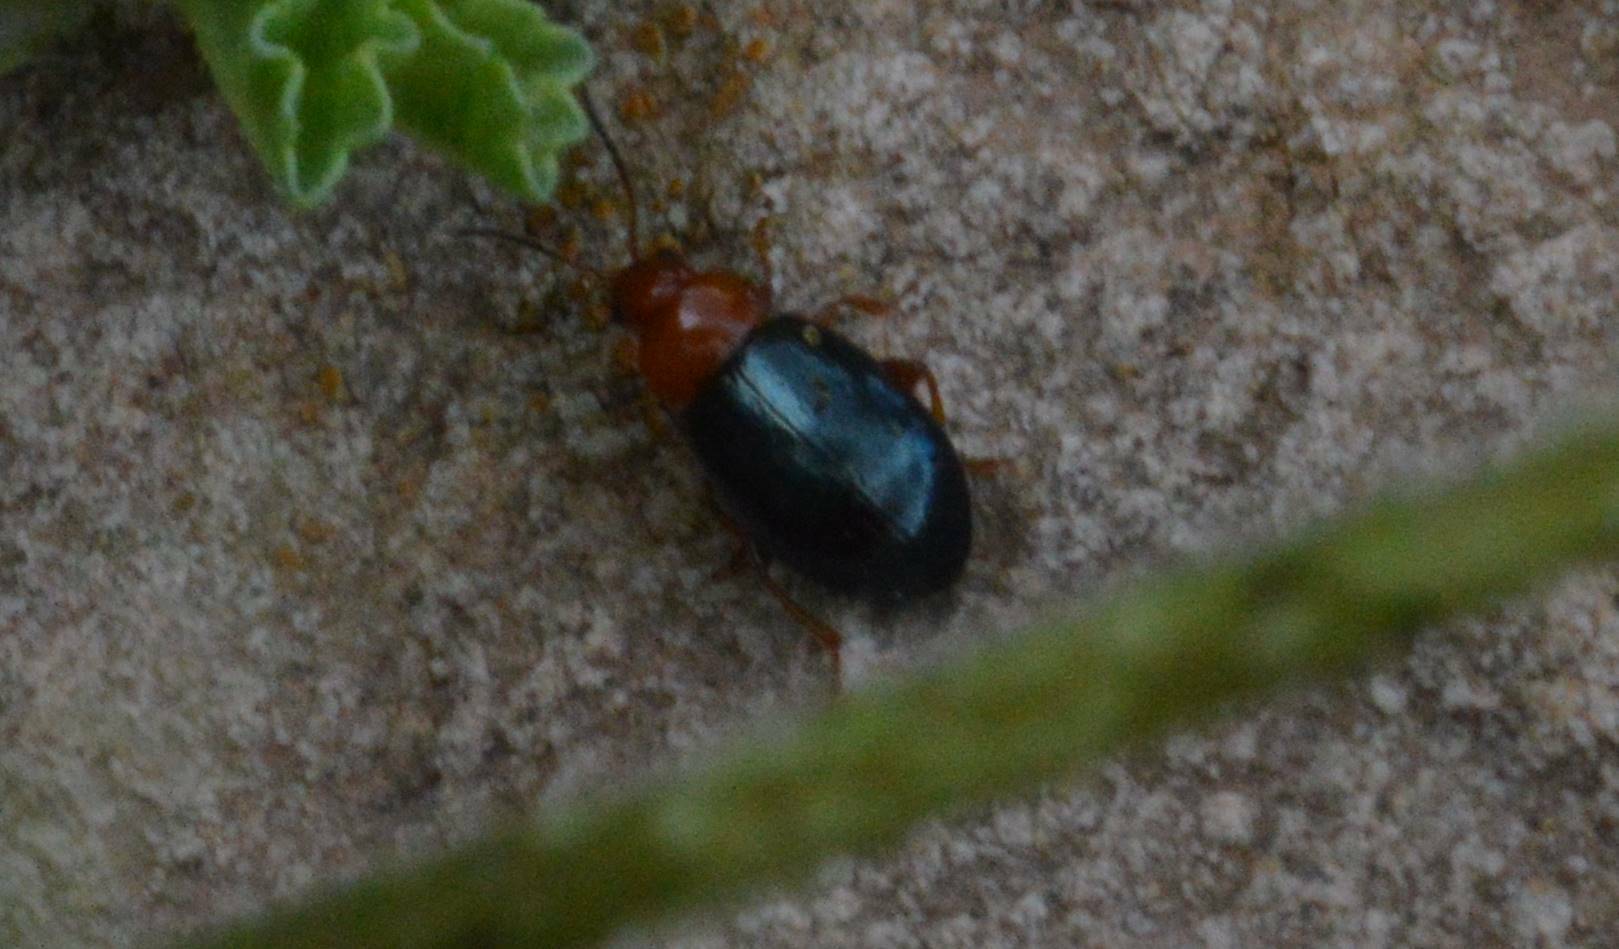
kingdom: Animalia
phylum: Arthropoda
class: Insecta
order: Coleoptera
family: Chrysomelidae
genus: Podagrica
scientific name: Podagrica fuscicornis
